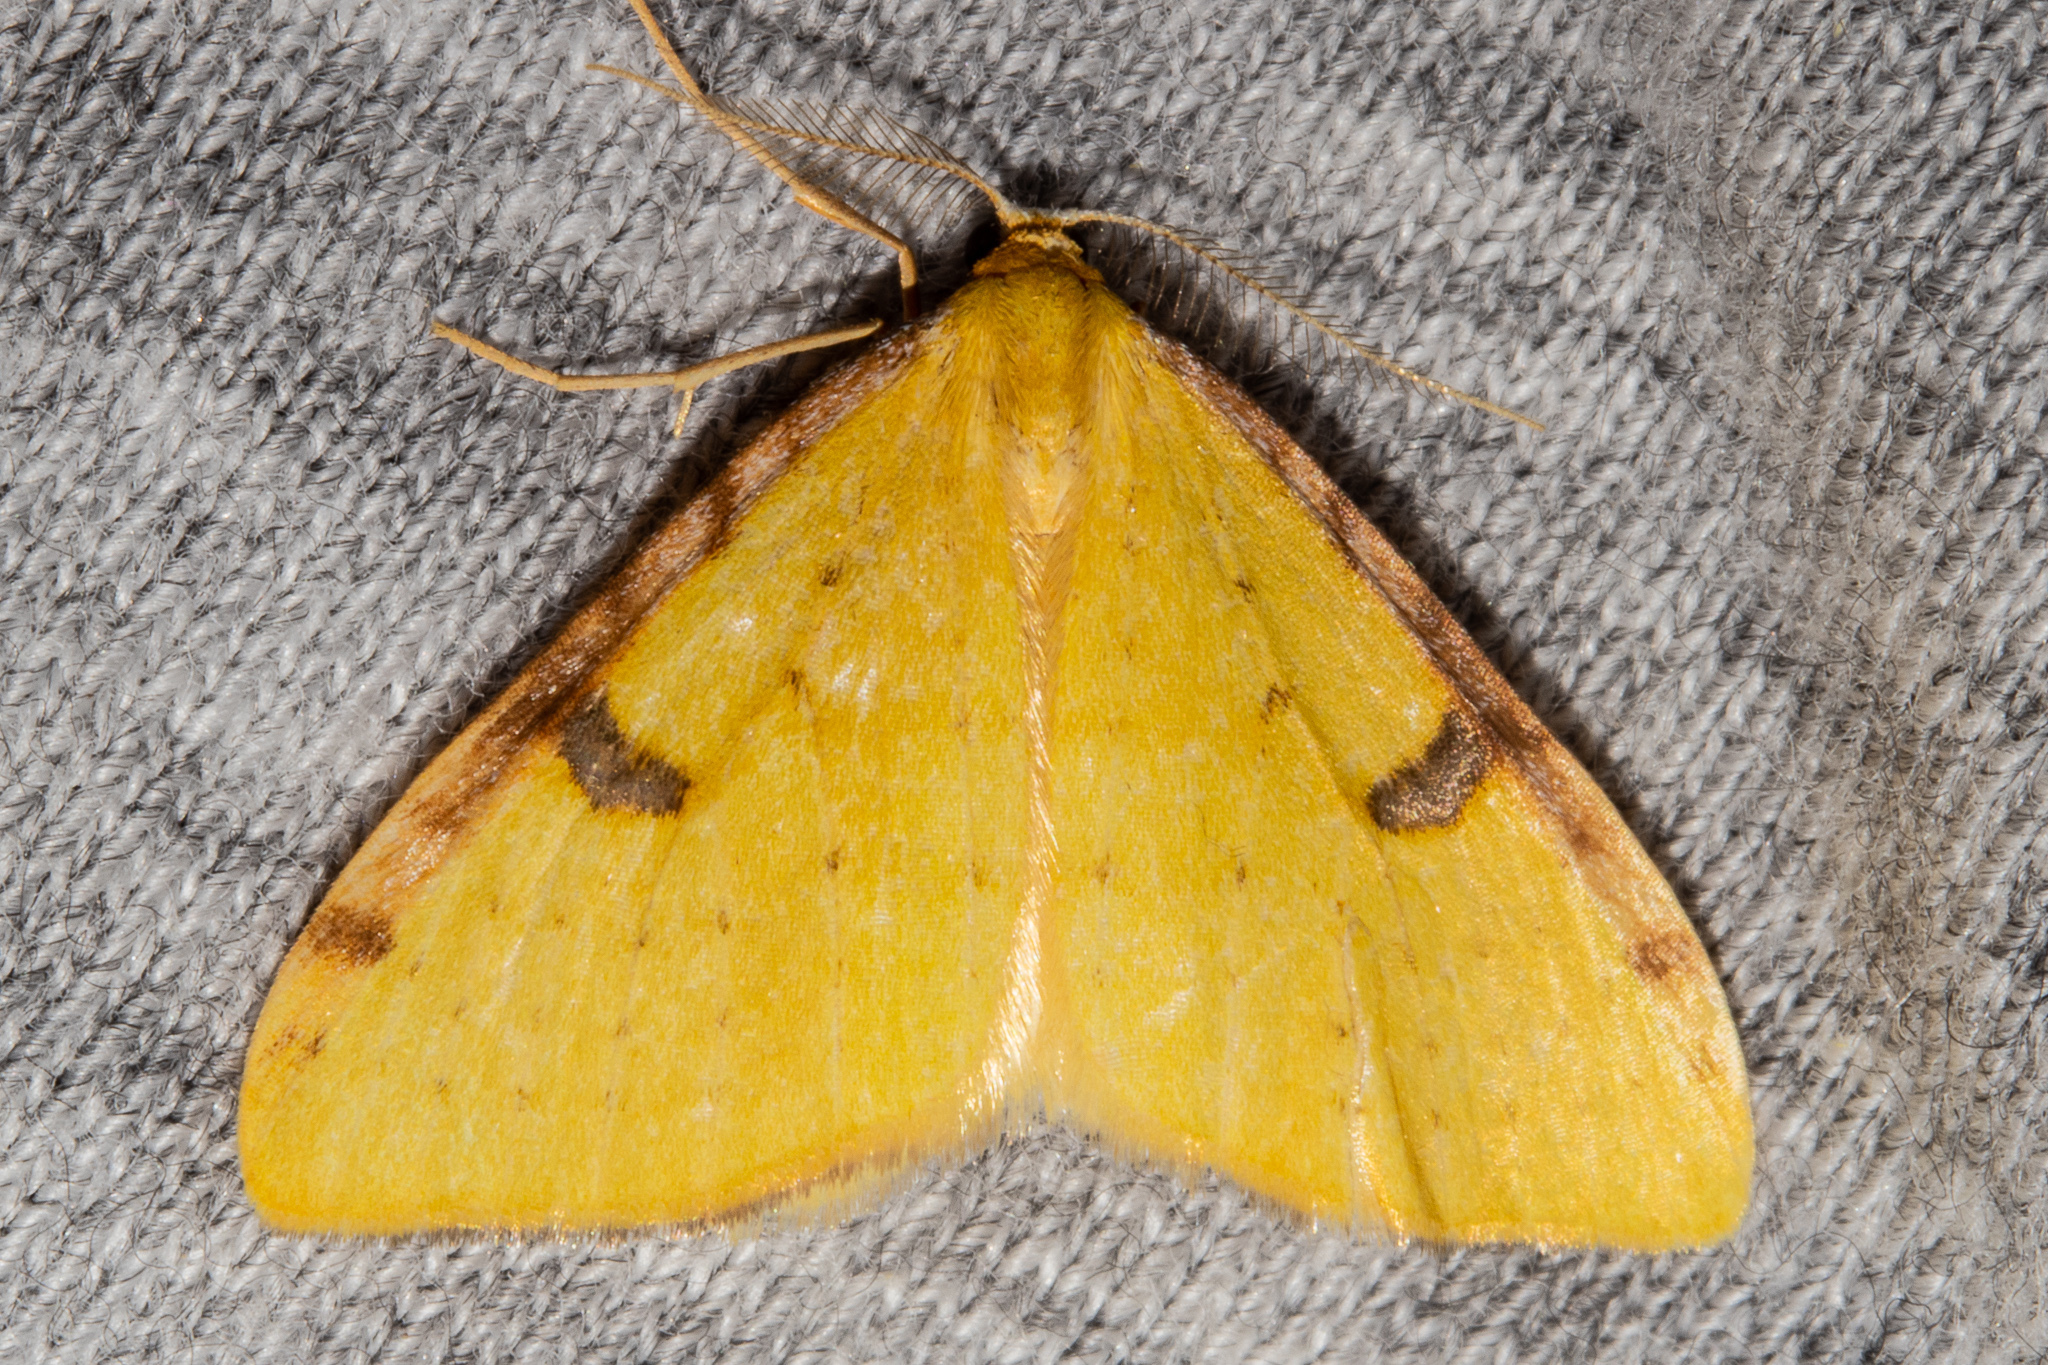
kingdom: Animalia
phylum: Arthropoda
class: Insecta
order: Lepidoptera
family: Geometridae
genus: Epiphryne
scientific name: Epiphryne xanthaspis
